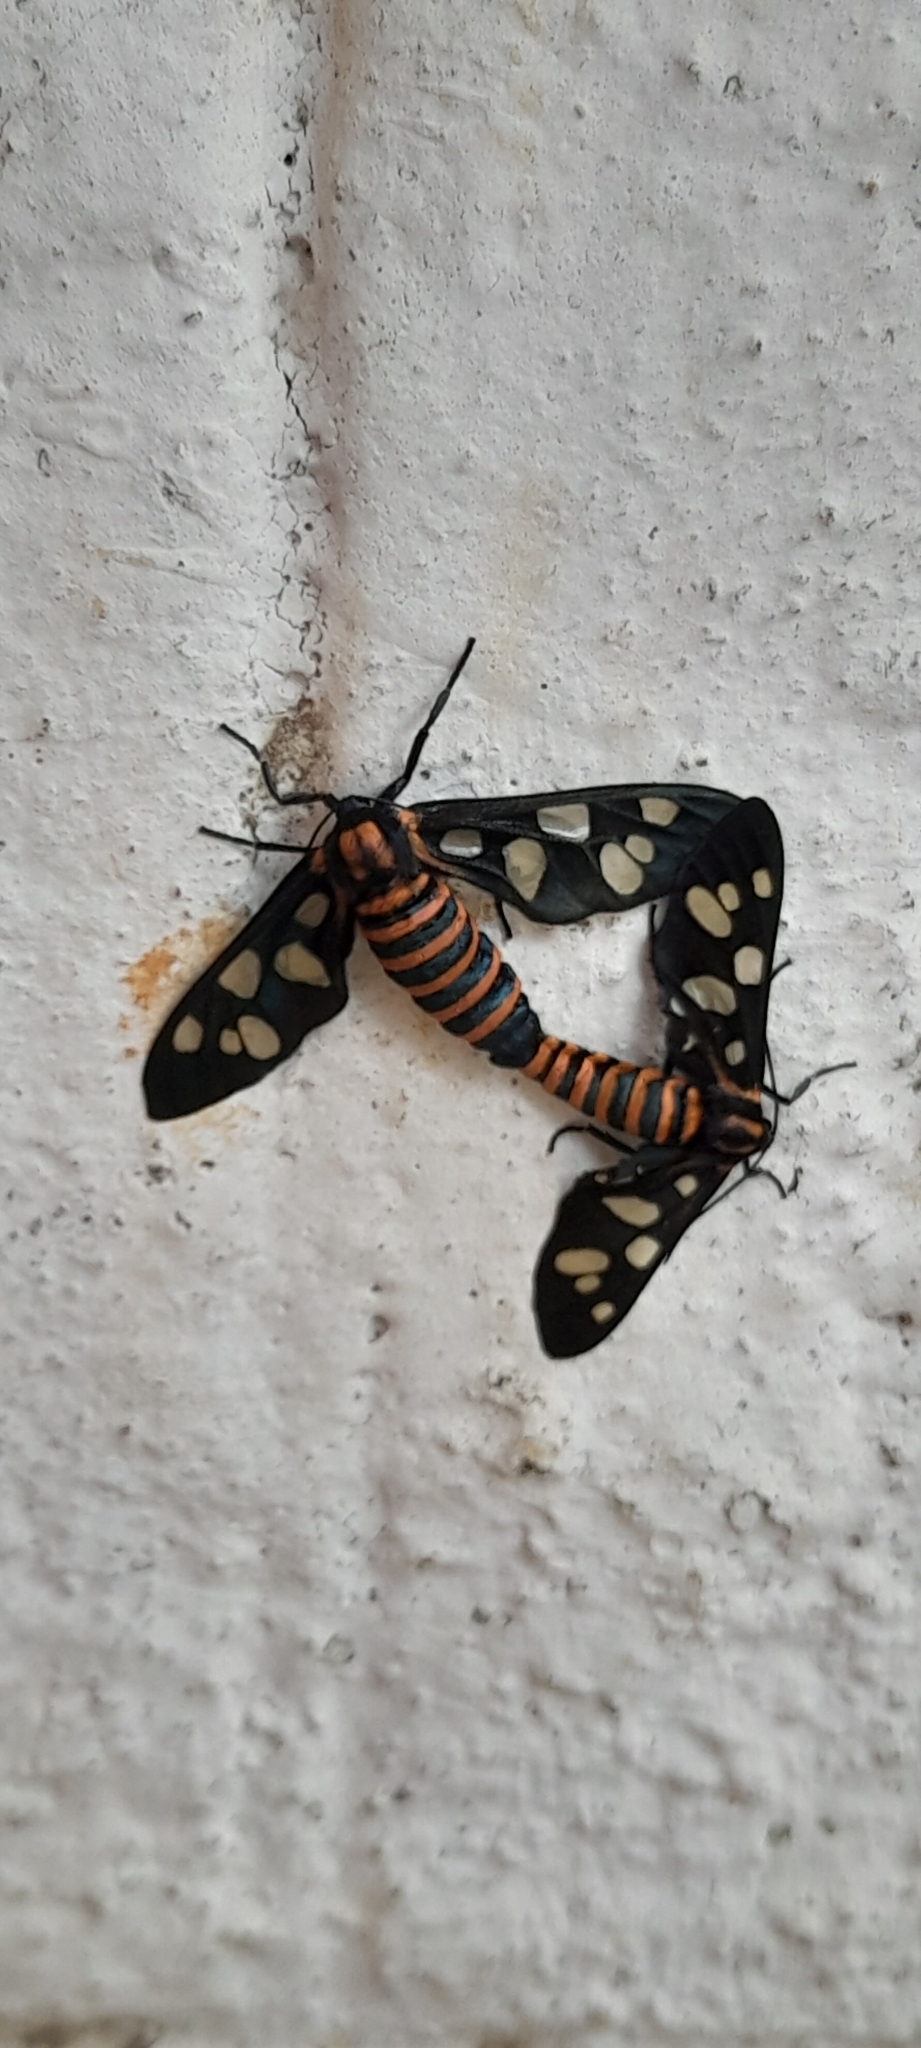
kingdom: Animalia
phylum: Arthropoda
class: Insecta
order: Lepidoptera
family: Erebidae
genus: Amata
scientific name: Amata passalis
